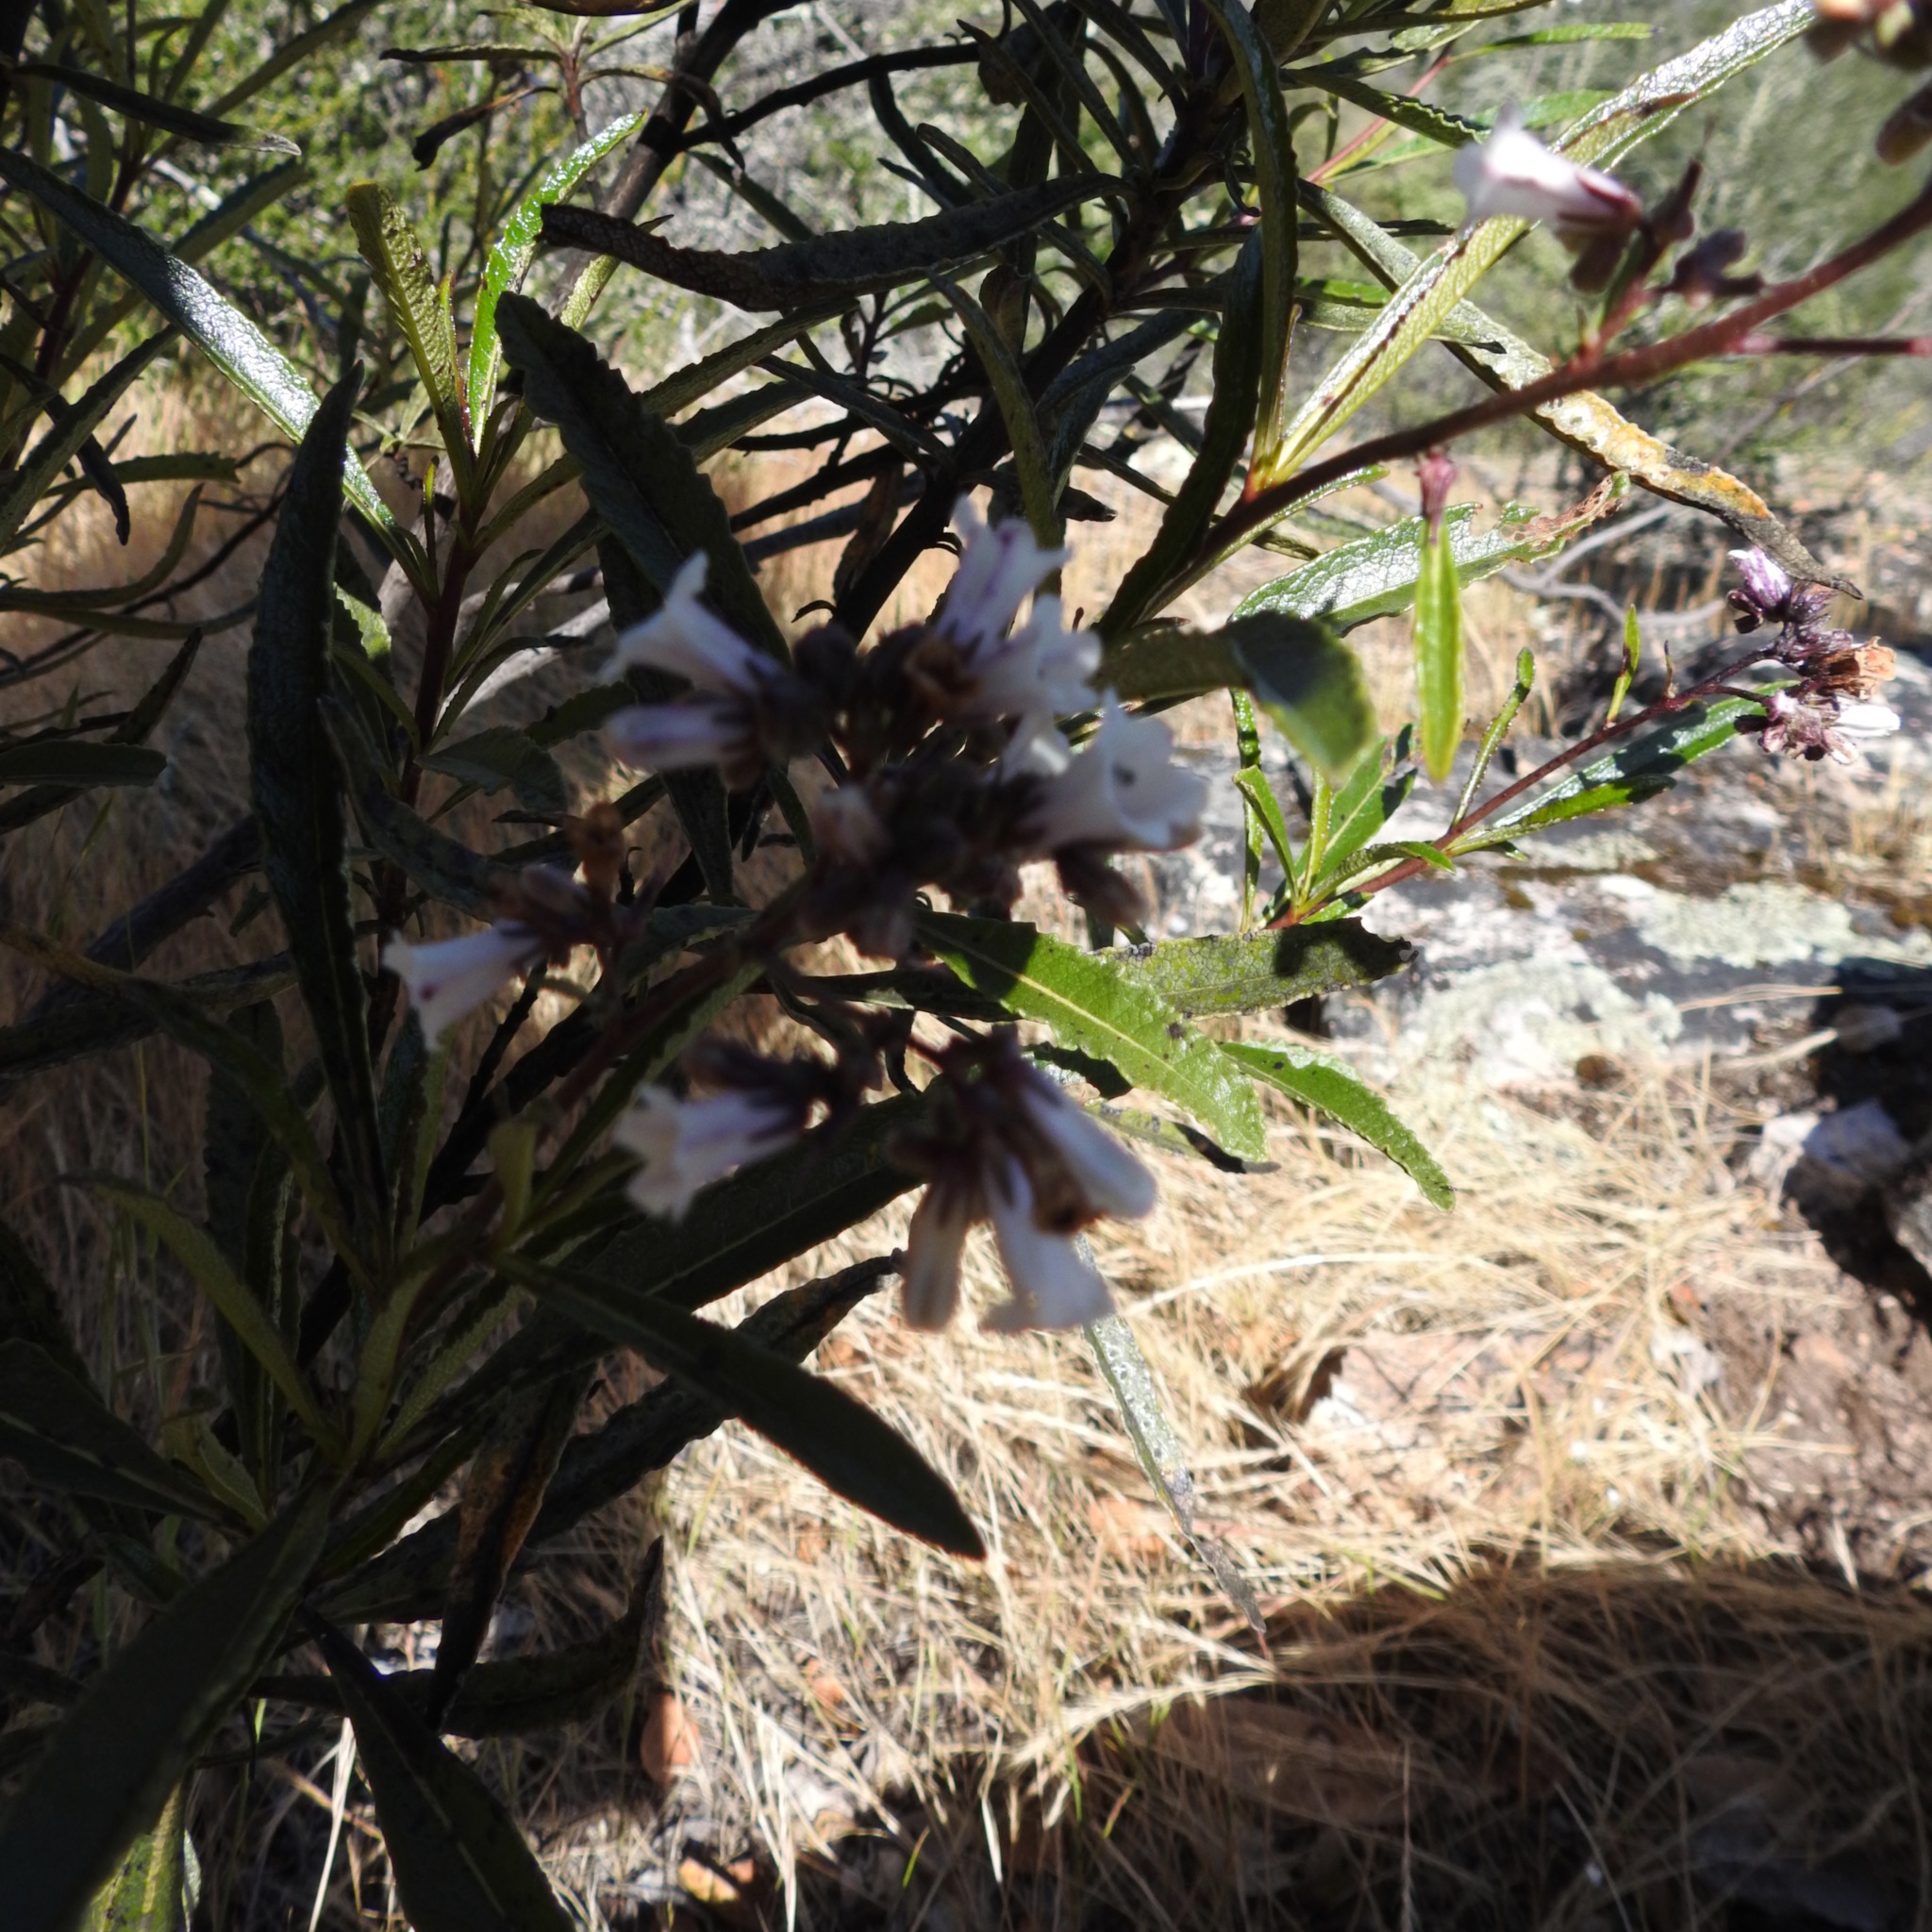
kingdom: Plantae
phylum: Tracheophyta
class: Magnoliopsida
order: Boraginales
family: Namaceae
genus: Eriodictyon
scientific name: Eriodictyon californicum
